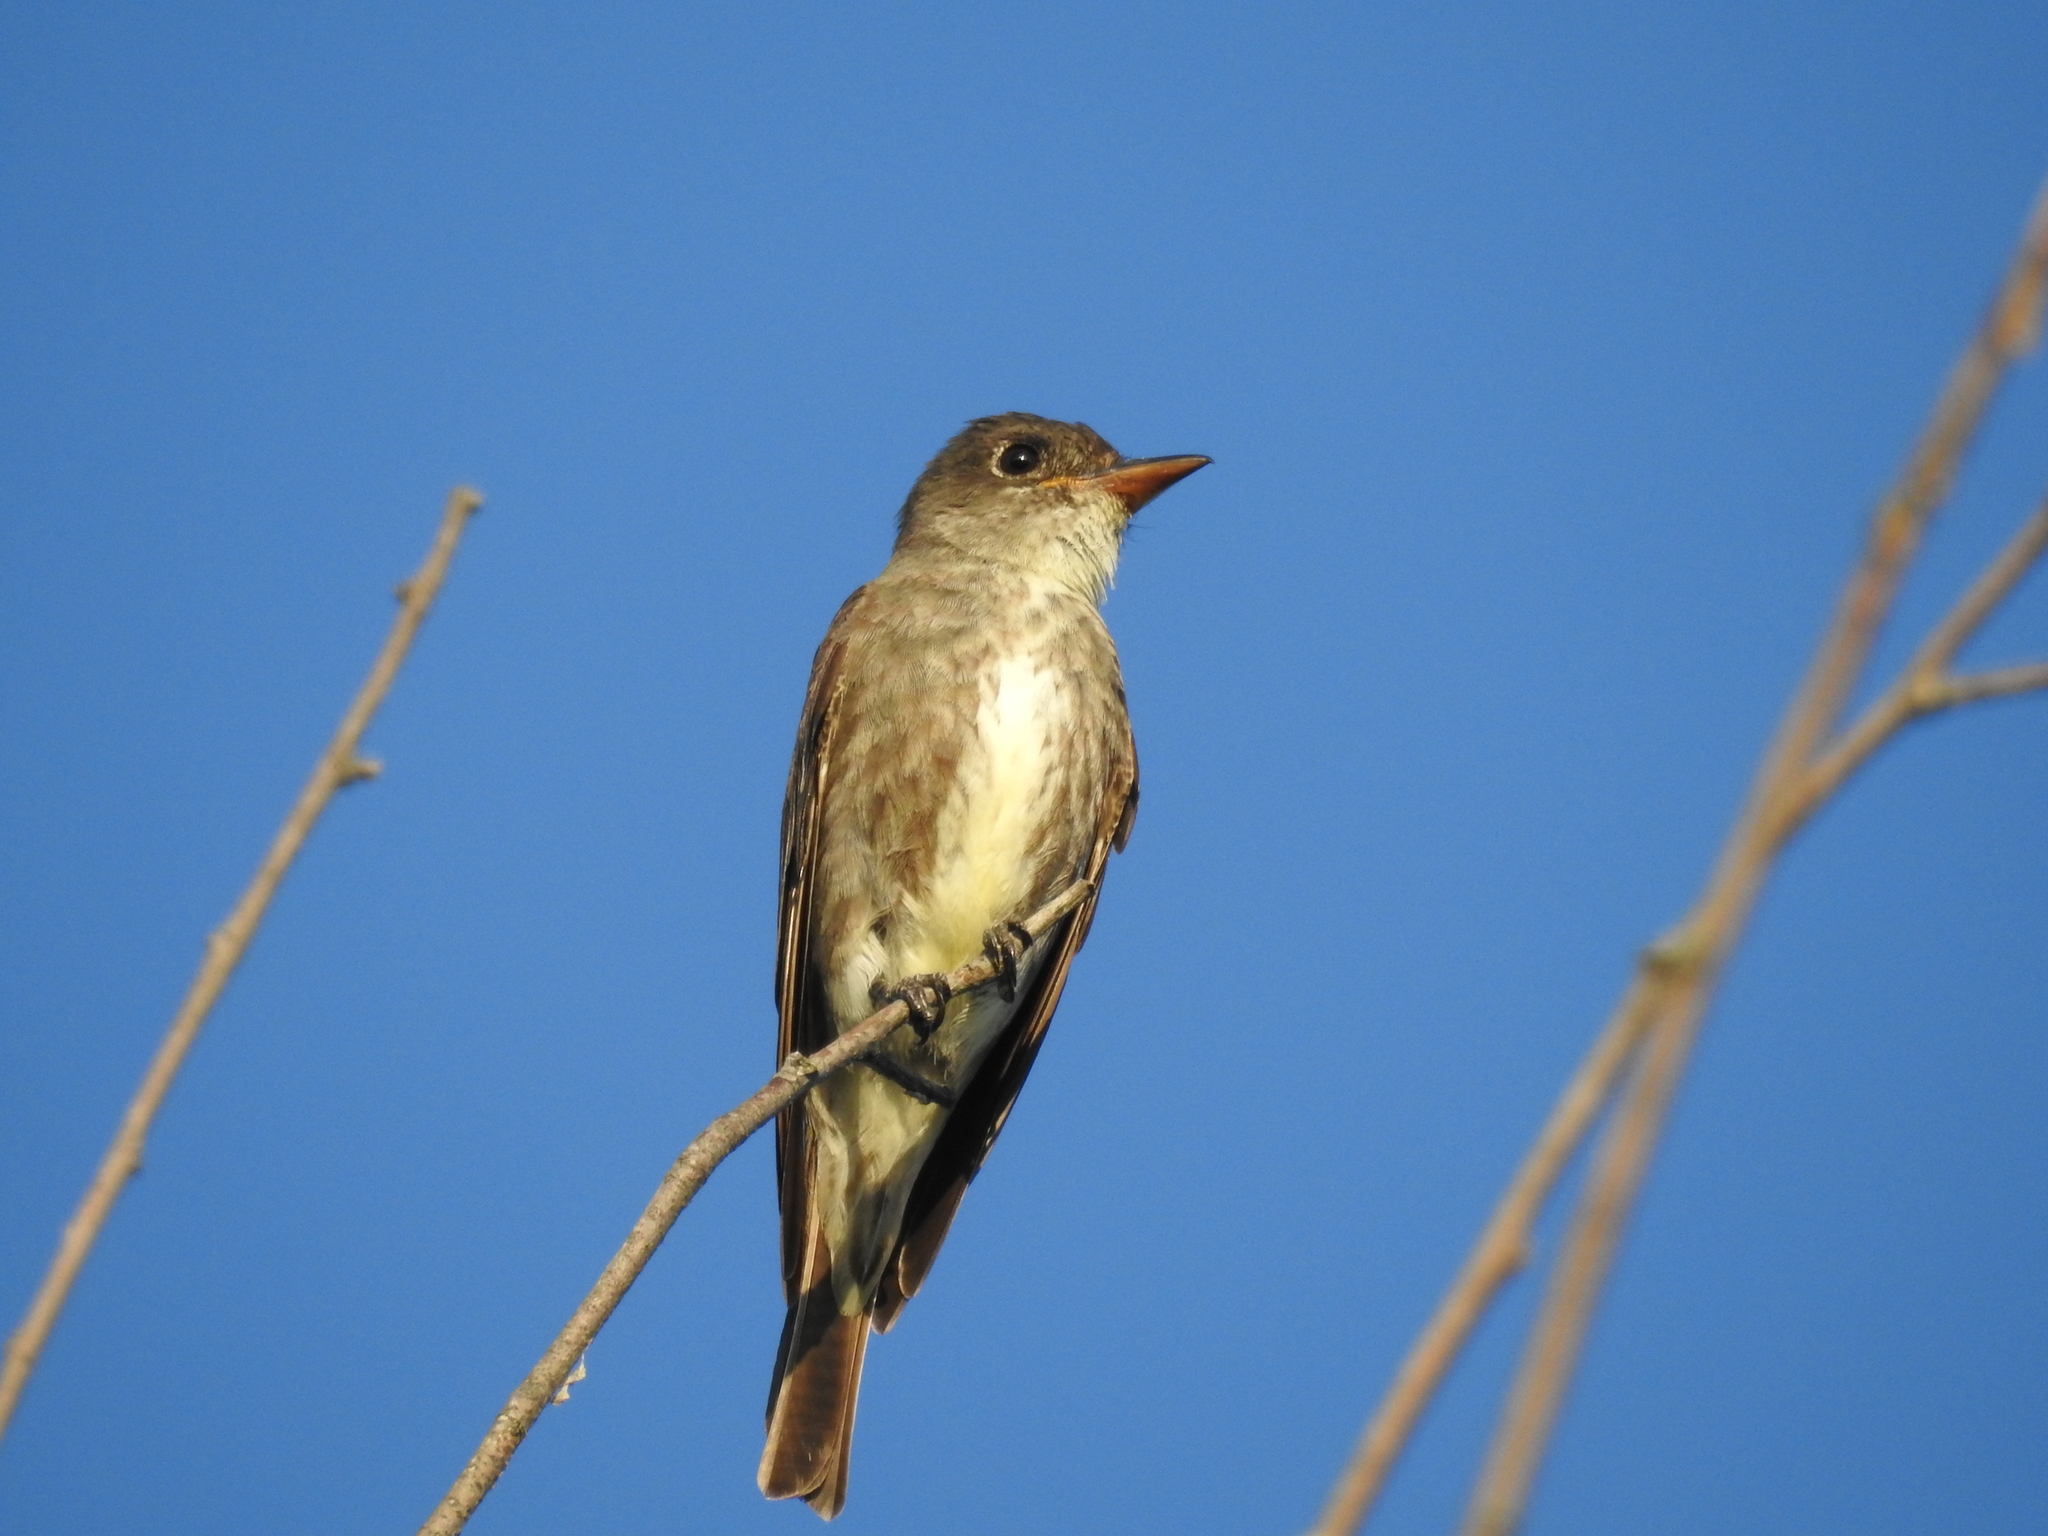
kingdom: Animalia
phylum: Chordata
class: Aves
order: Passeriformes
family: Tyrannidae
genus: Contopus
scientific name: Contopus cooperi
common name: Olive-sided flycatcher
